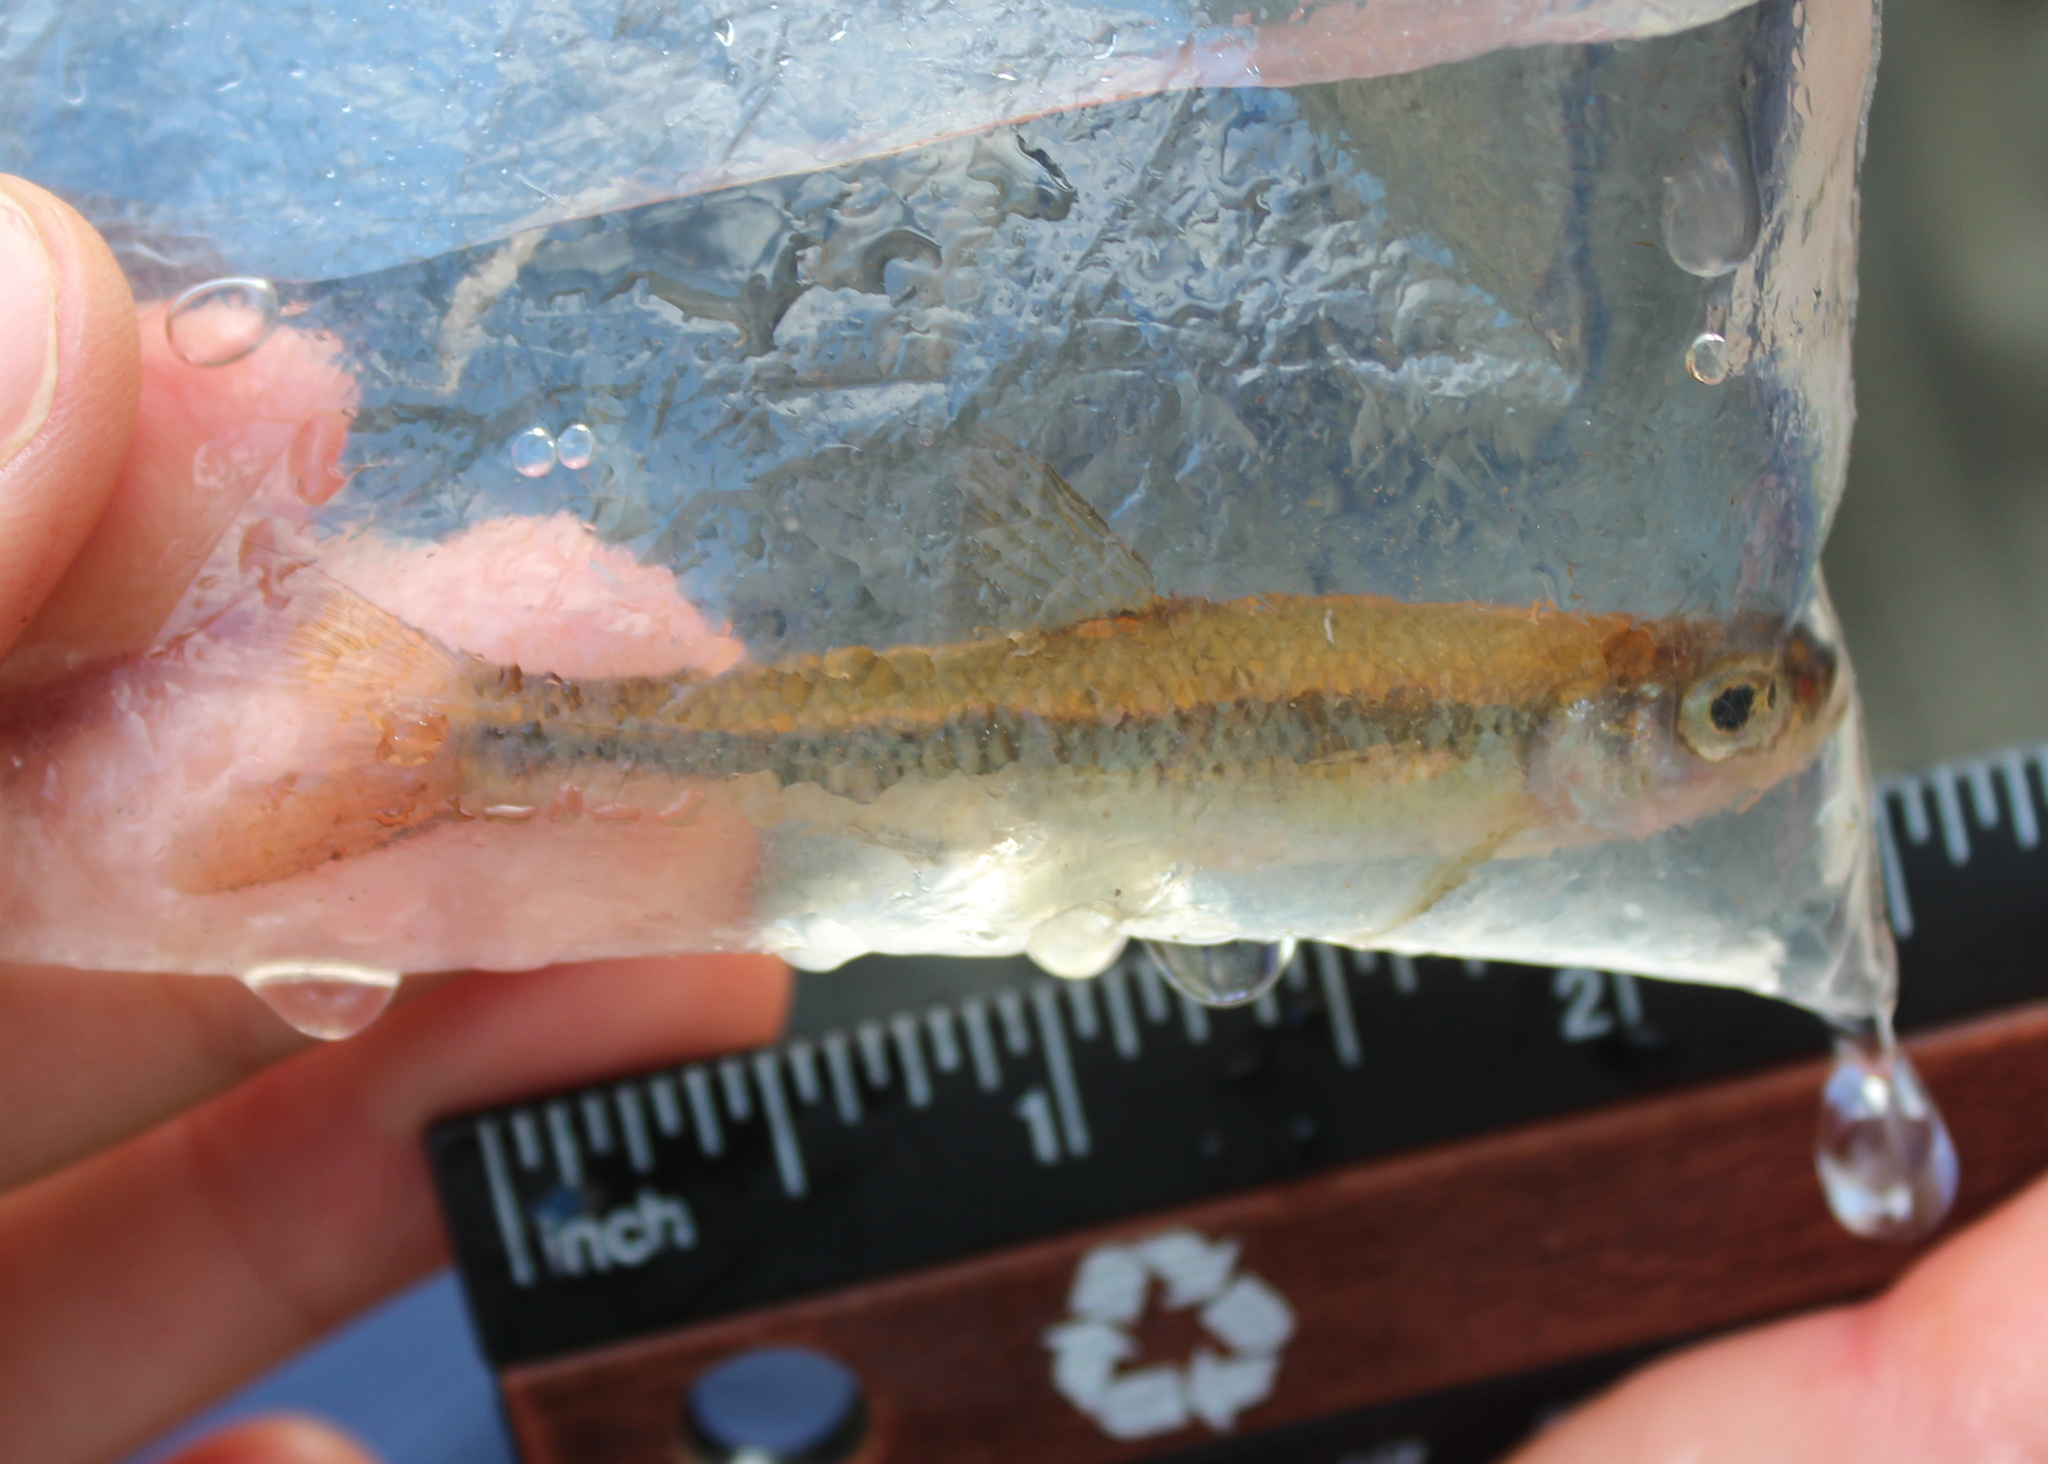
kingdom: Animalia
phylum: Chordata
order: Cypriniformes
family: Cyprinidae
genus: Luxilus
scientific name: Luxilus cornutus
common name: Common shiner
